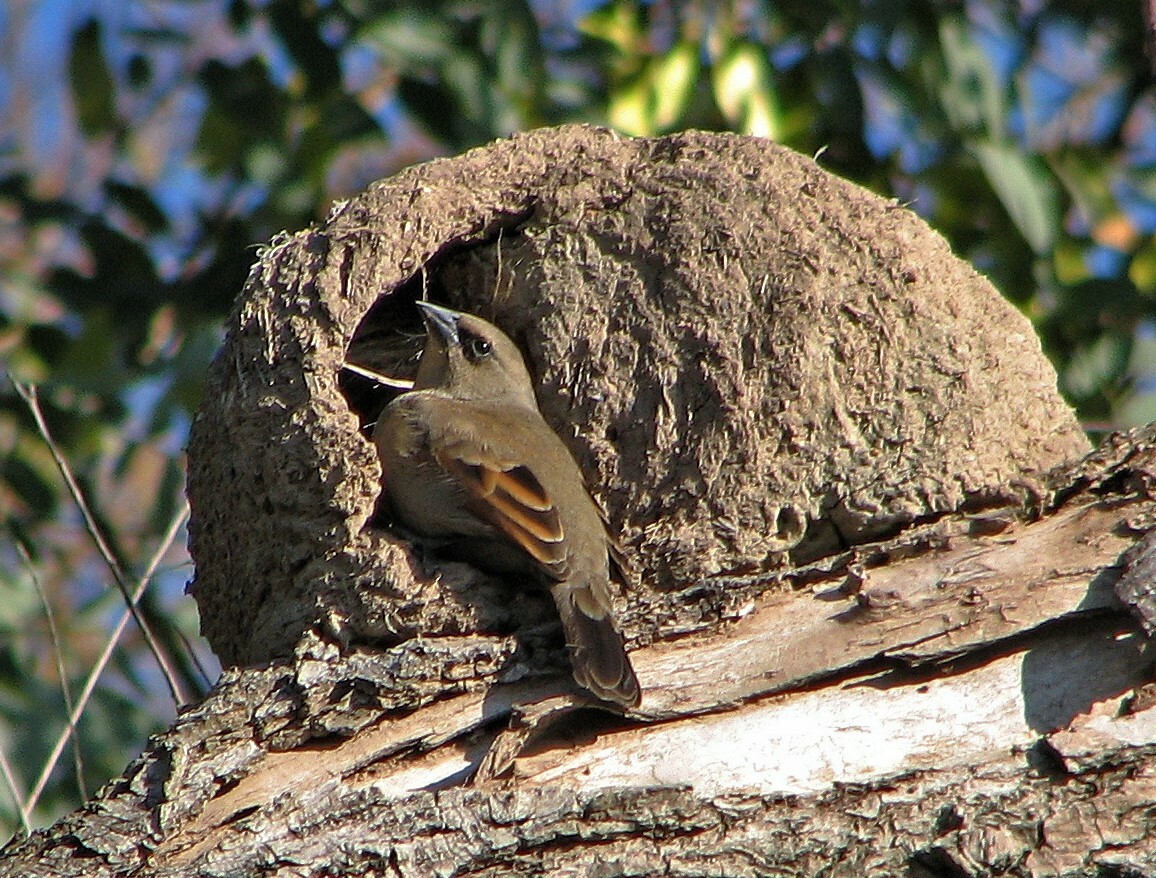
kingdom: Animalia
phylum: Chordata
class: Aves
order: Passeriformes
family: Icteridae
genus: Agelaioides
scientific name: Agelaioides badius
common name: Baywing
